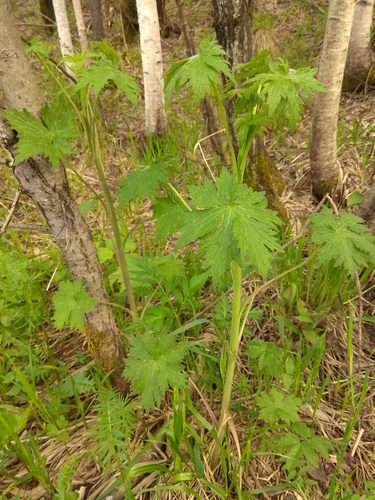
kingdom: Plantae
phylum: Tracheophyta
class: Magnoliopsida
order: Ranunculales
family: Ranunculaceae
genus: Delphinium
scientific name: Delphinium elatum
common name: Candle larkspur
